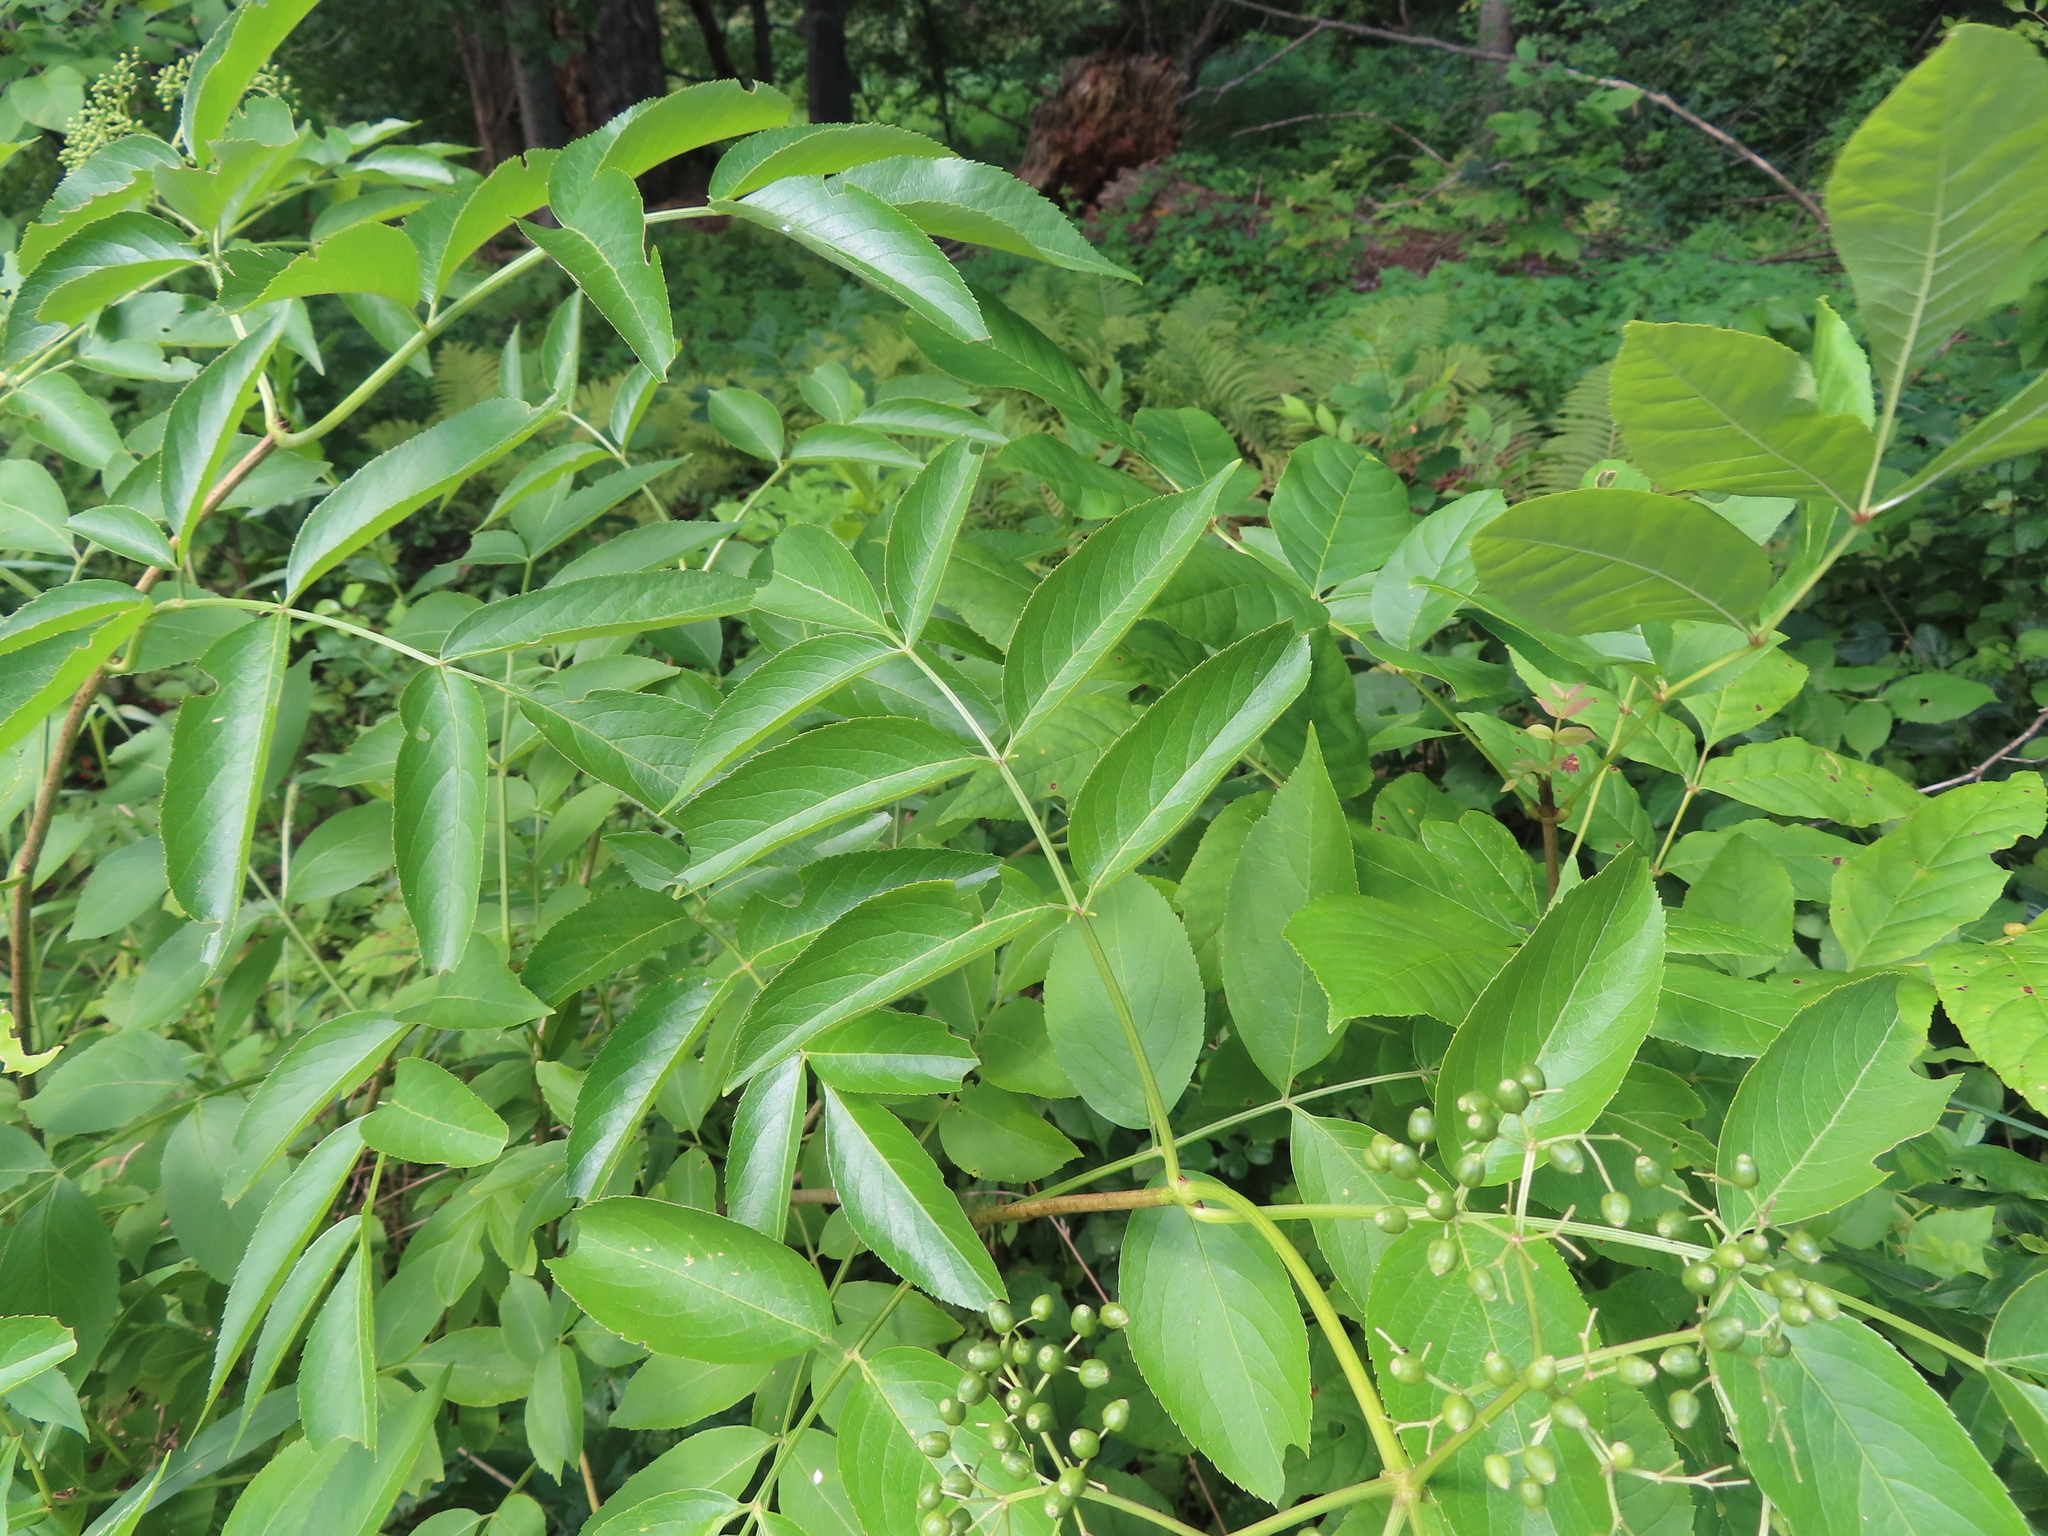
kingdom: Plantae
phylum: Tracheophyta
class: Magnoliopsida
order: Dipsacales
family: Viburnaceae
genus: Sambucus
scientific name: Sambucus canadensis
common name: American elder
